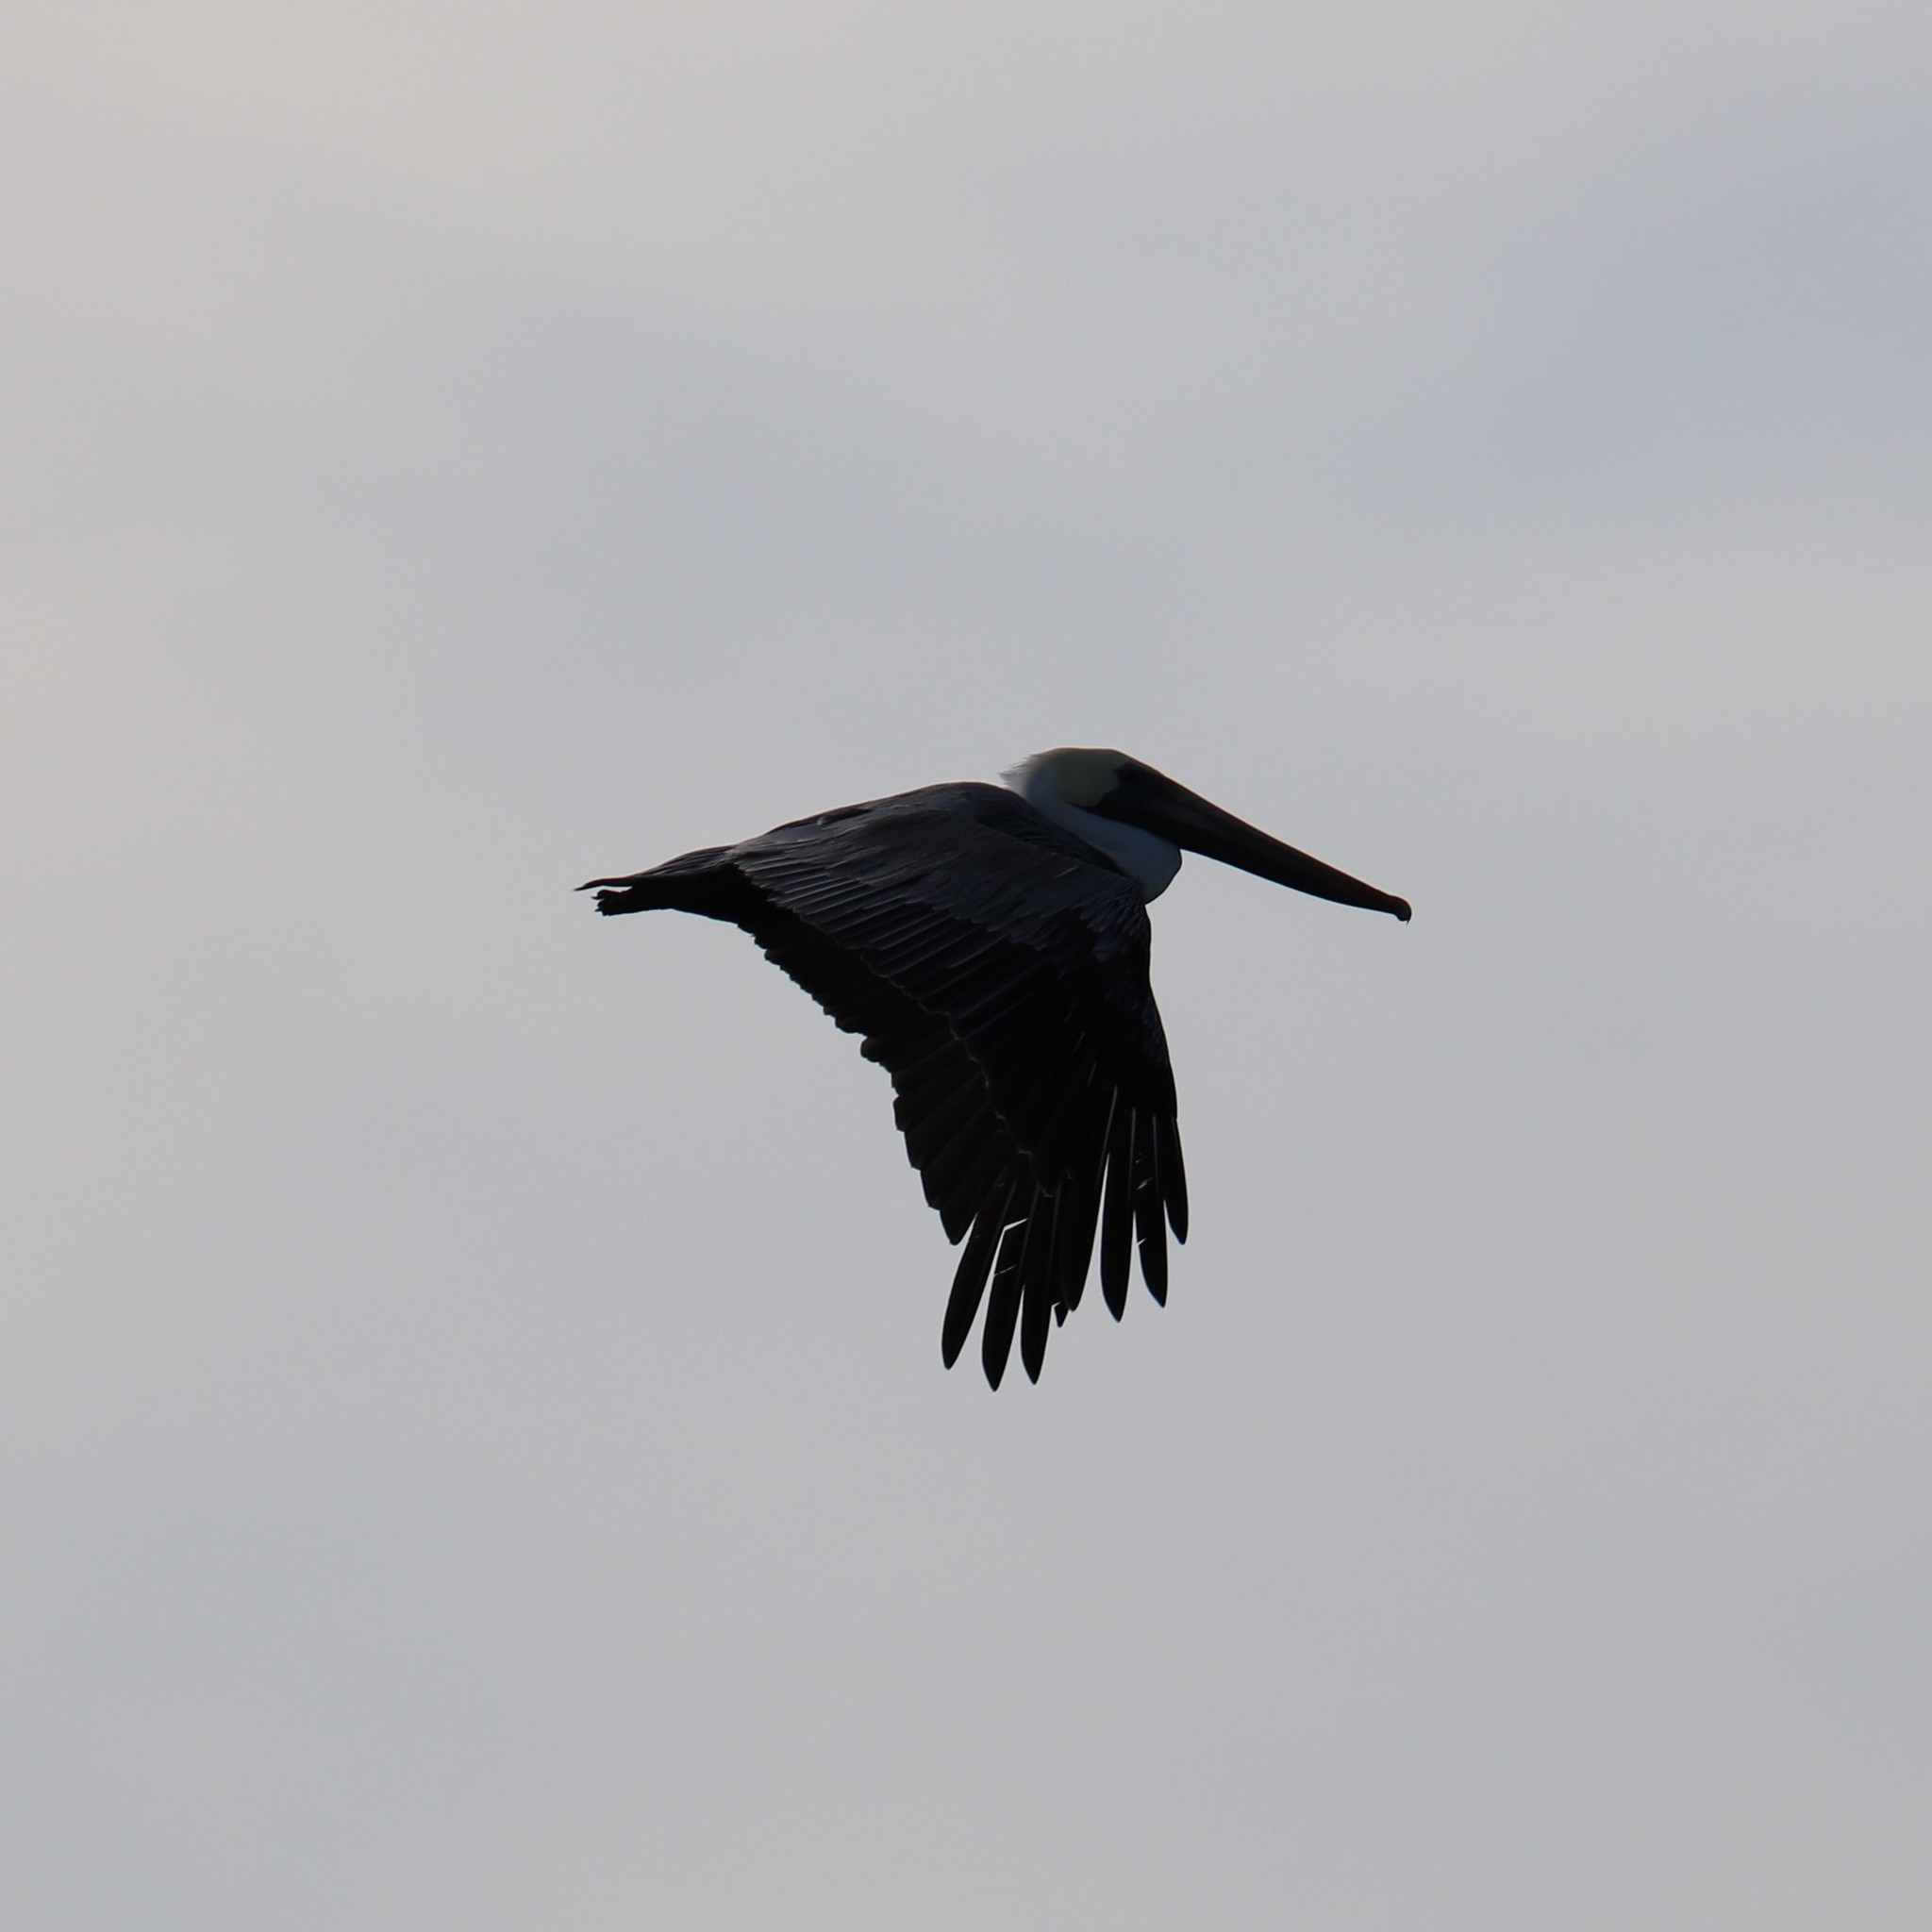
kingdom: Animalia
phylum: Chordata
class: Aves
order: Pelecaniformes
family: Pelecanidae
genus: Pelecanus
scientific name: Pelecanus occidentalis
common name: Brown pelican
